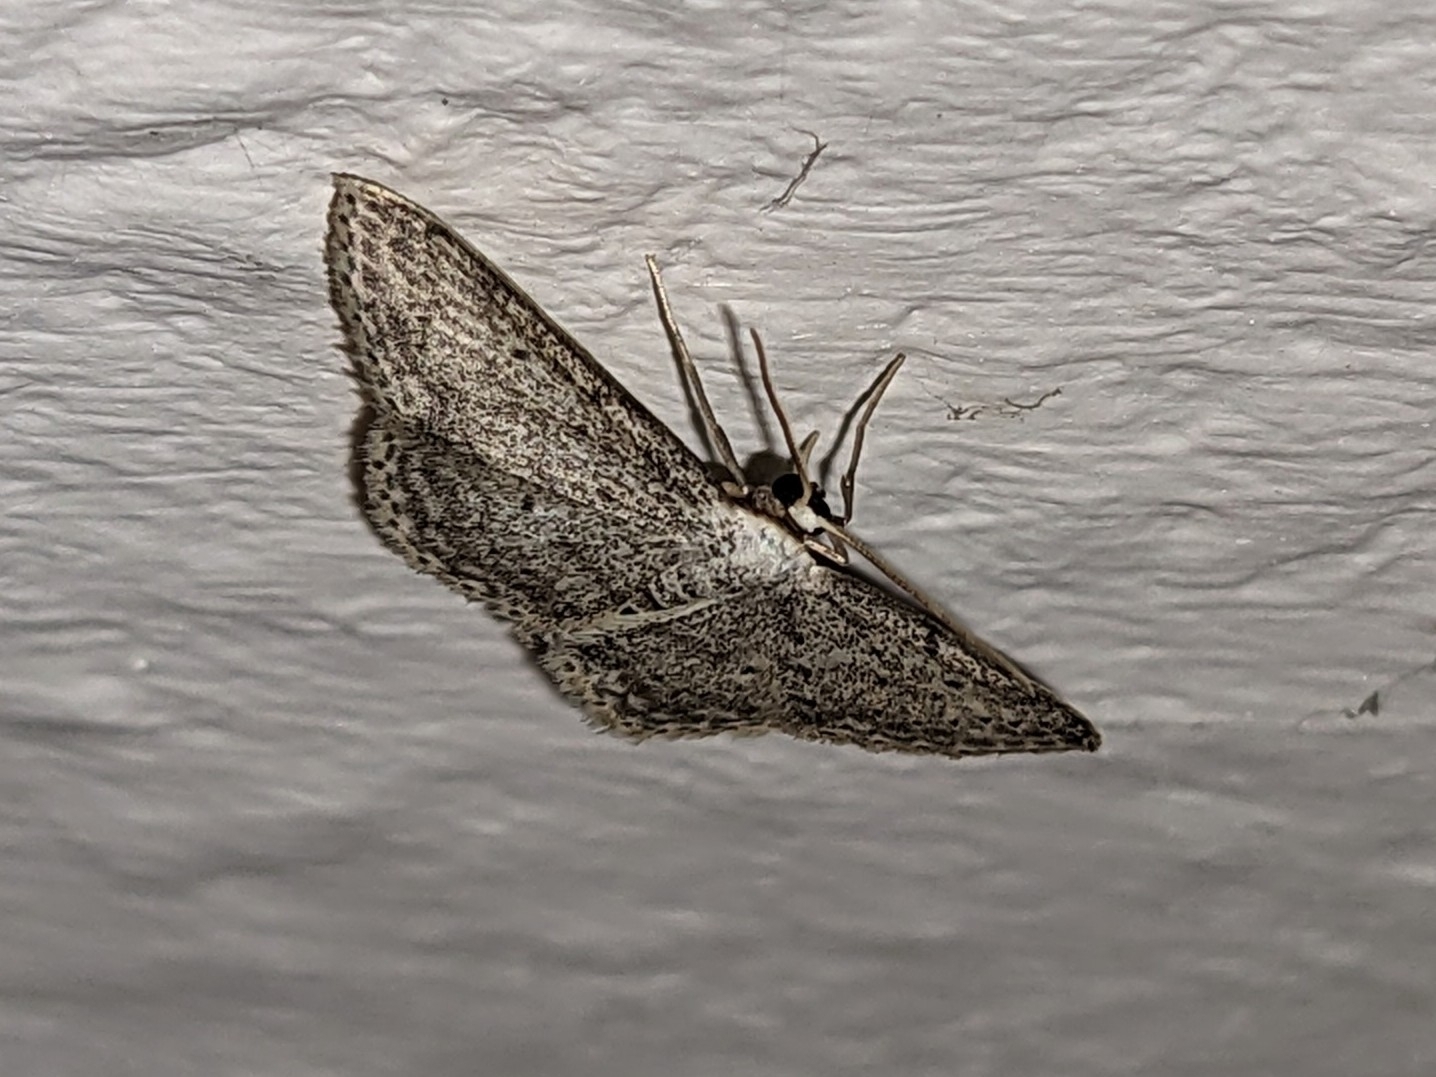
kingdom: Animalia
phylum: Arthropoda
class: Insecta
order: Lepidoptera
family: Geometridae
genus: Idaea
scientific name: Idaea seriata
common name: Small dusty wave
